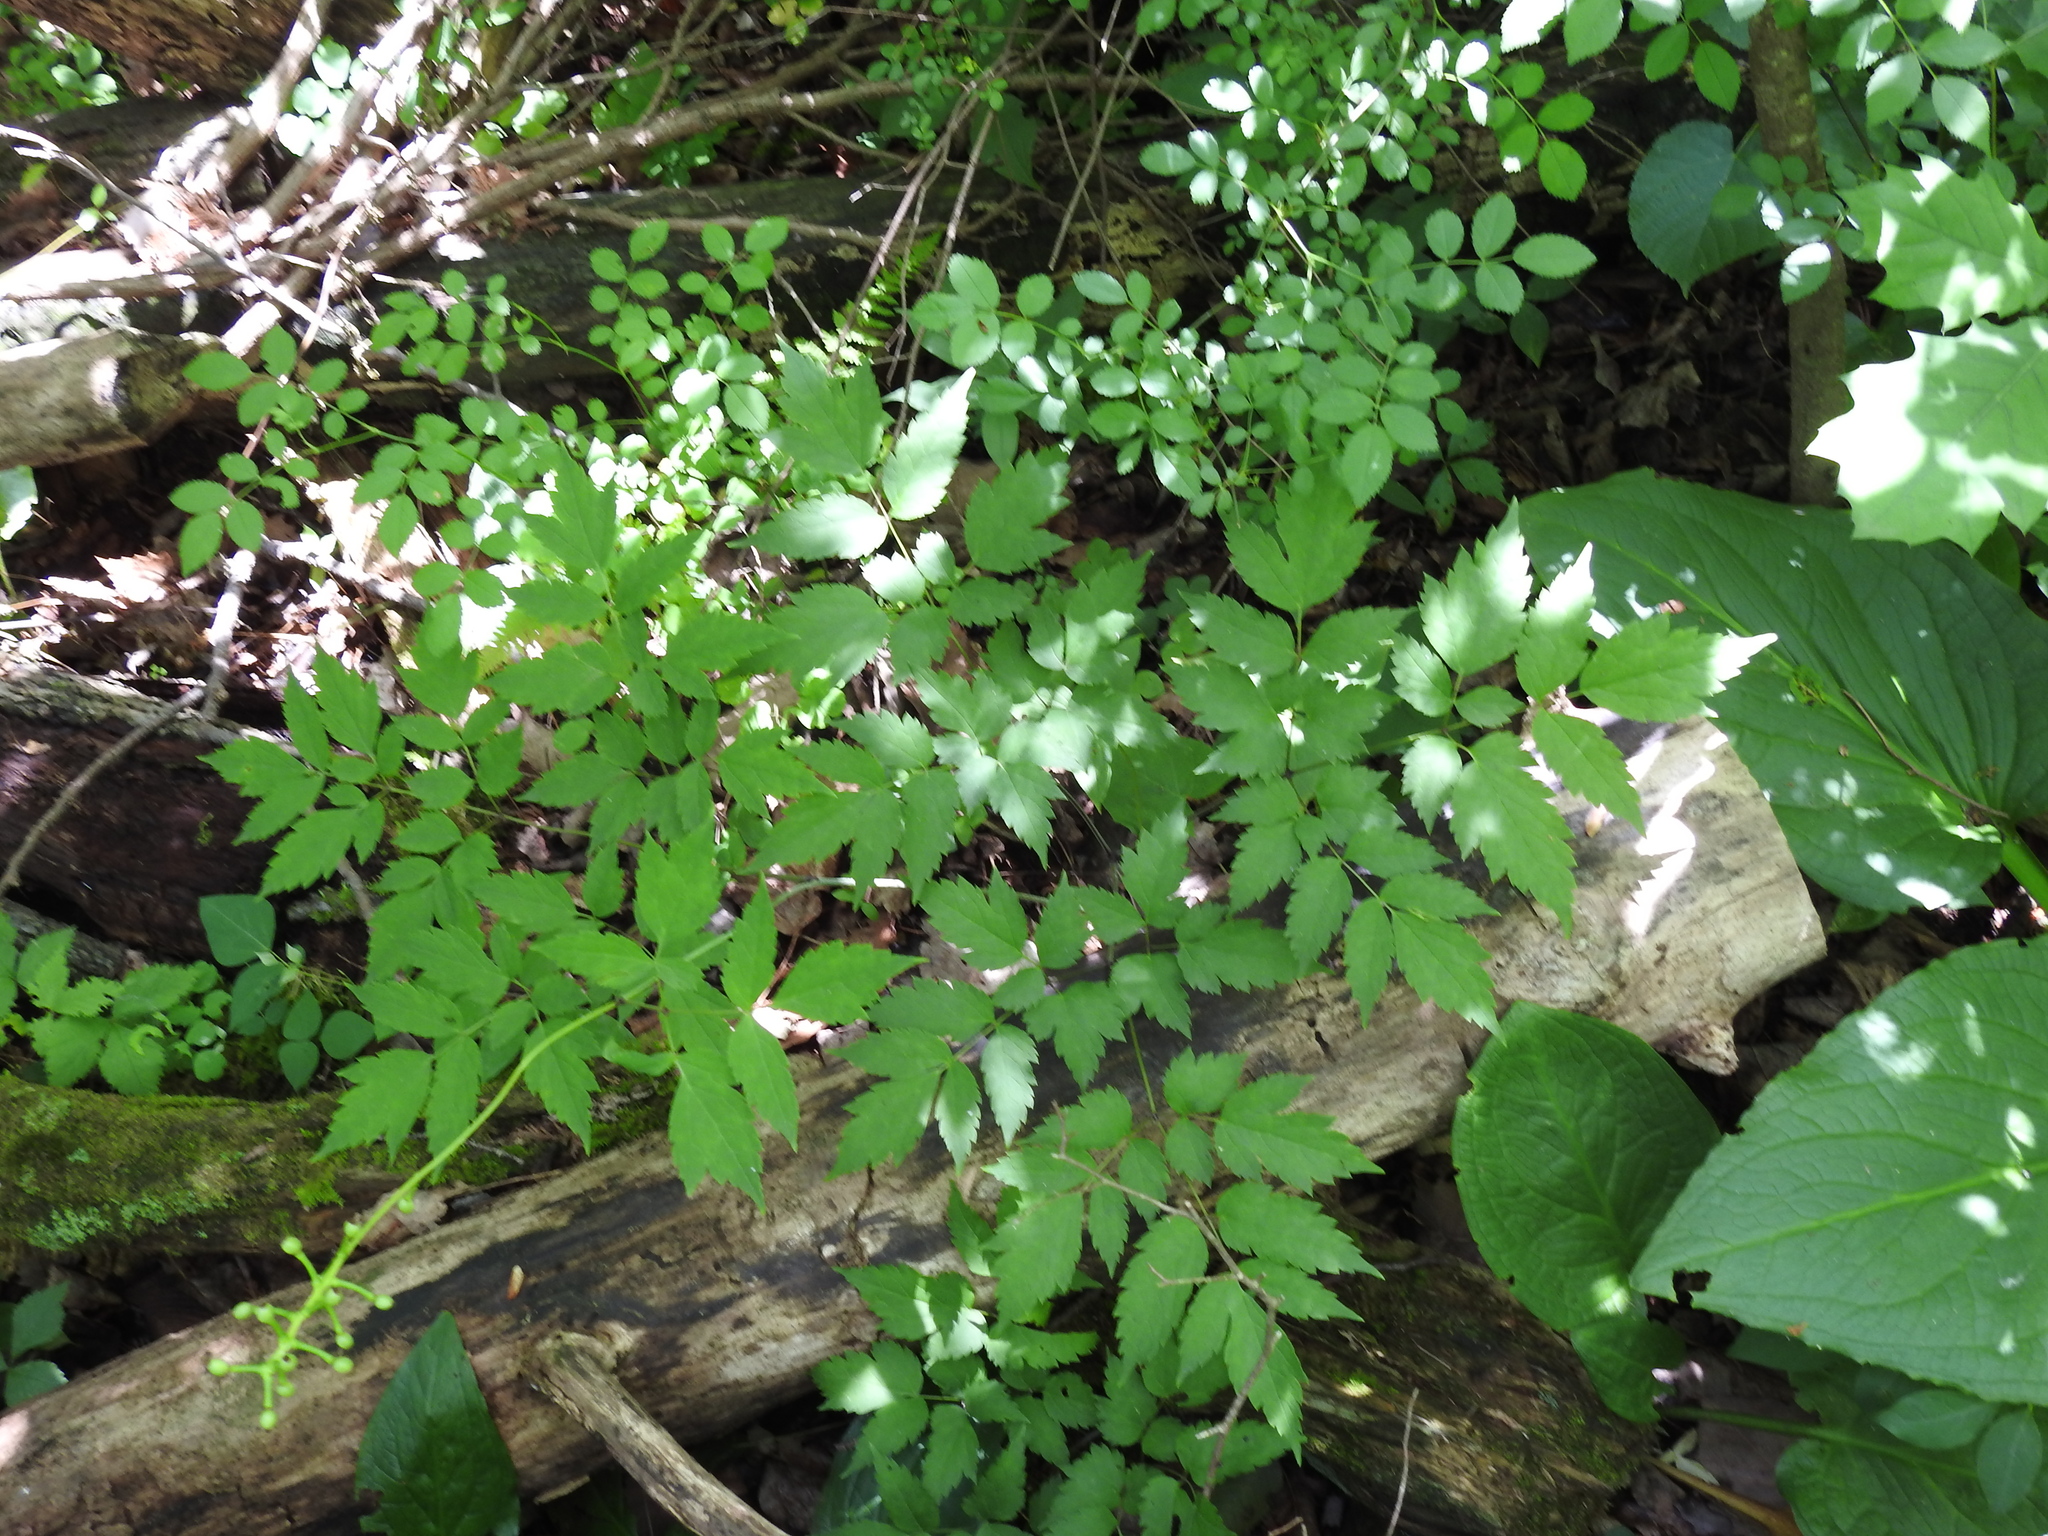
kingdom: Plantae
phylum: Tracheophyta
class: Magnoliopsida
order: Ranunculales
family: Ranunculaceae
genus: Actaea
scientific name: Actaea pachypoda
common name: Doll's-eyes
